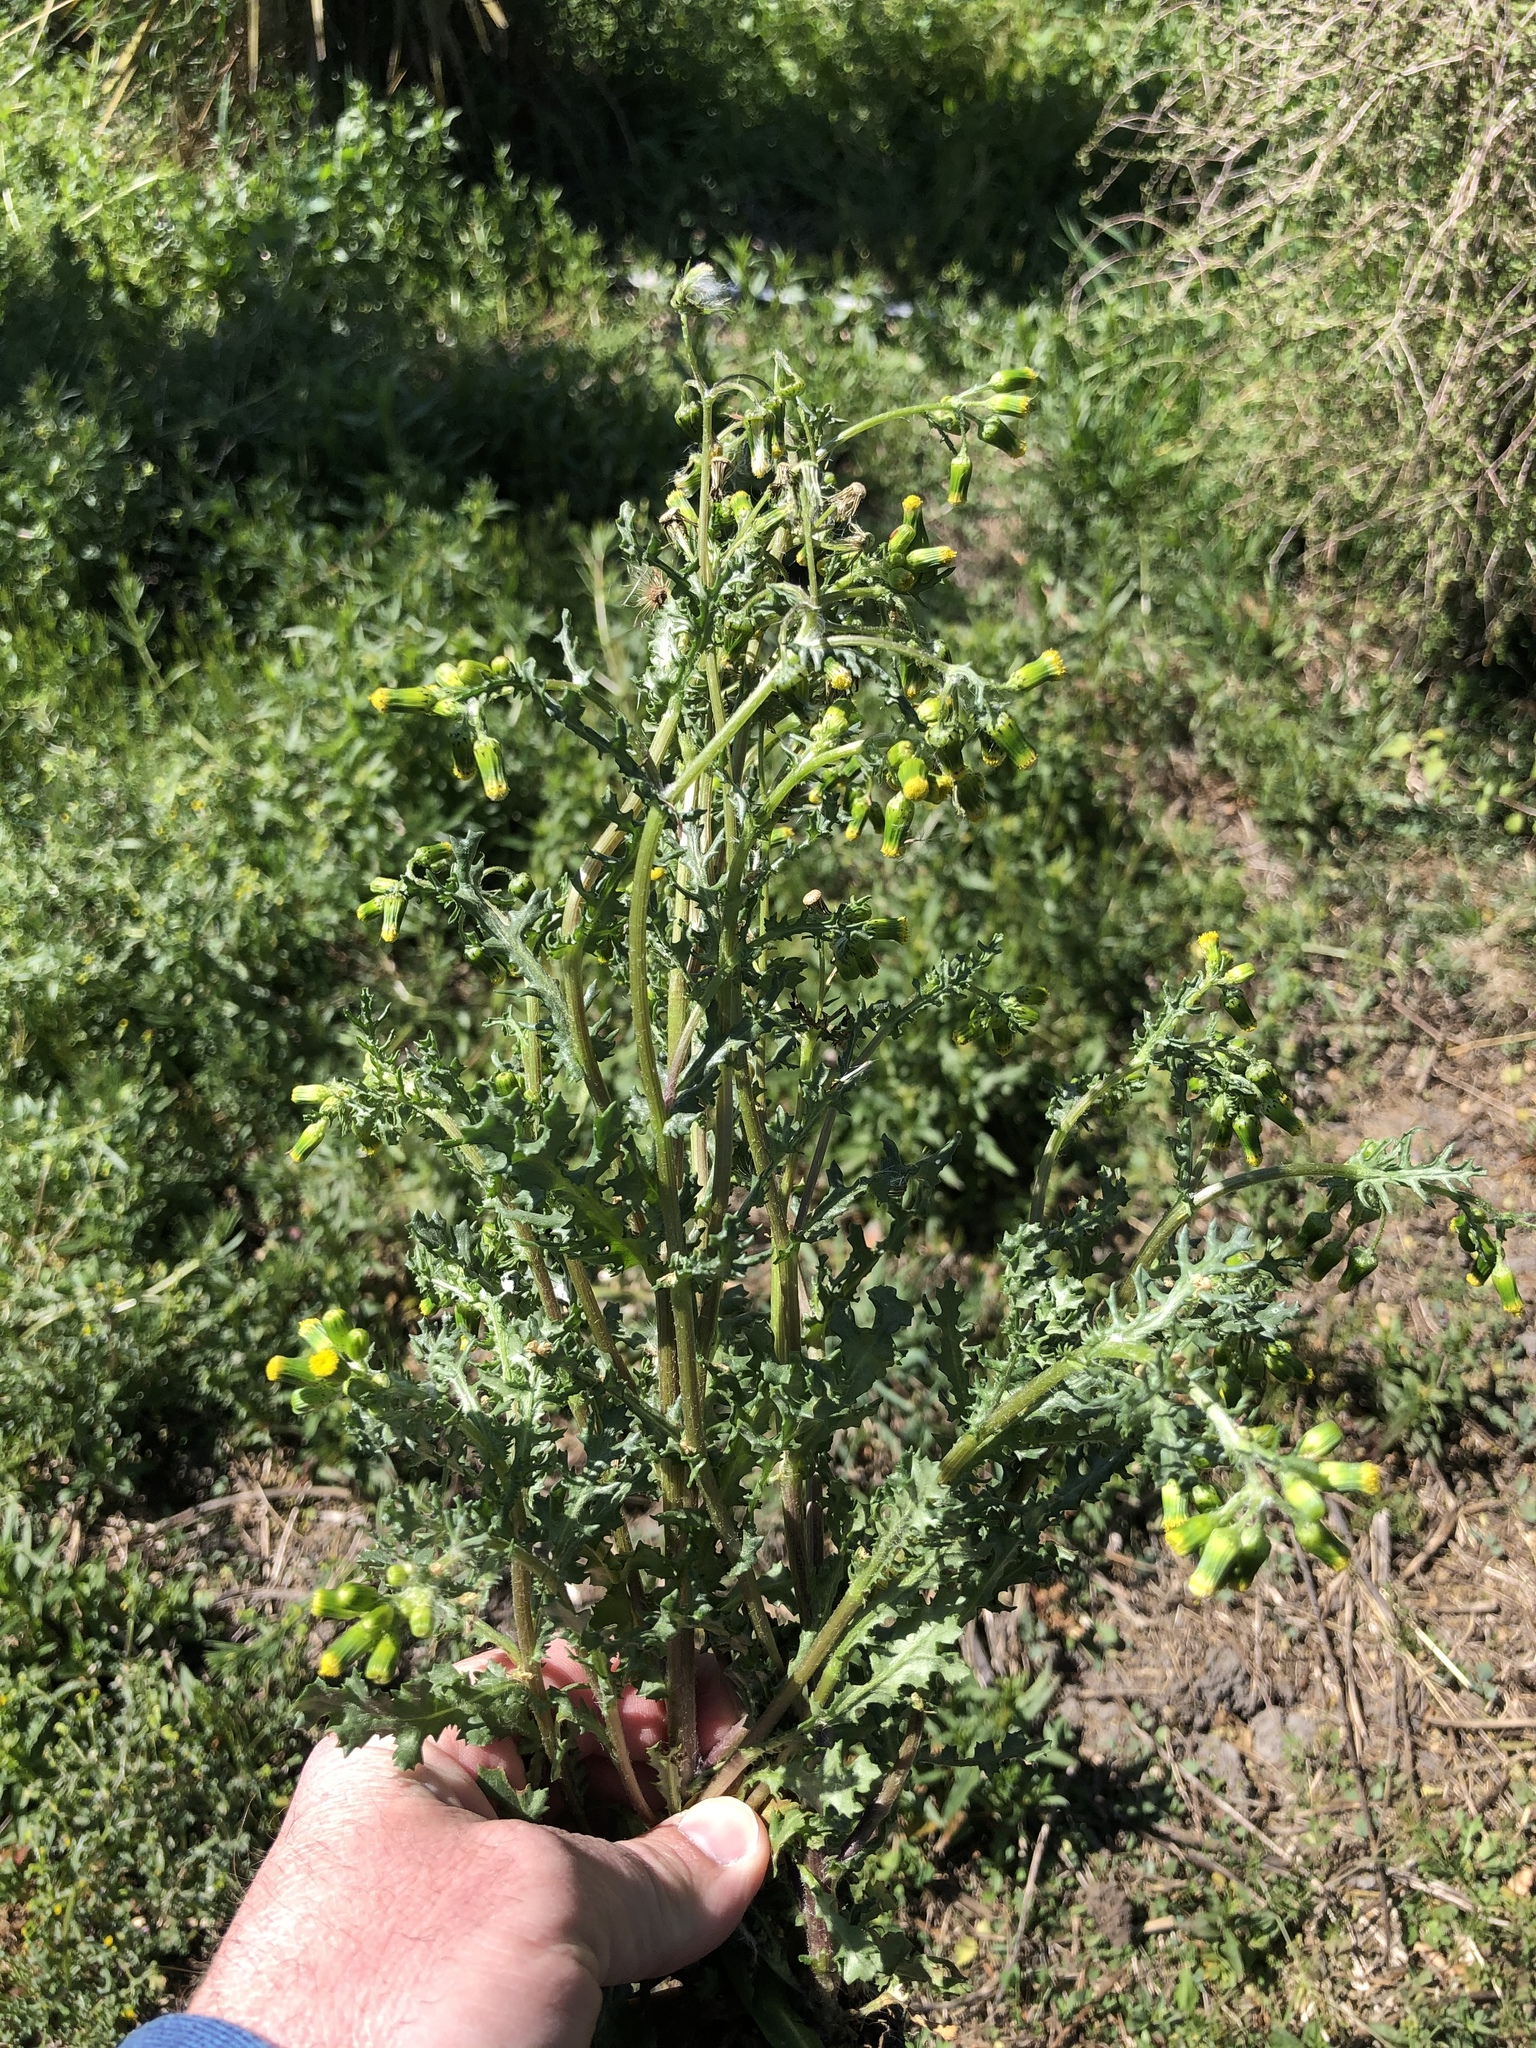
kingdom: Plantae
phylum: Tracheophyta
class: Magnoliopsida
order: Asterales
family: Asteraceae
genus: Senecio
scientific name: Senecio vulgaris
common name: Old-man-in-the-spring
